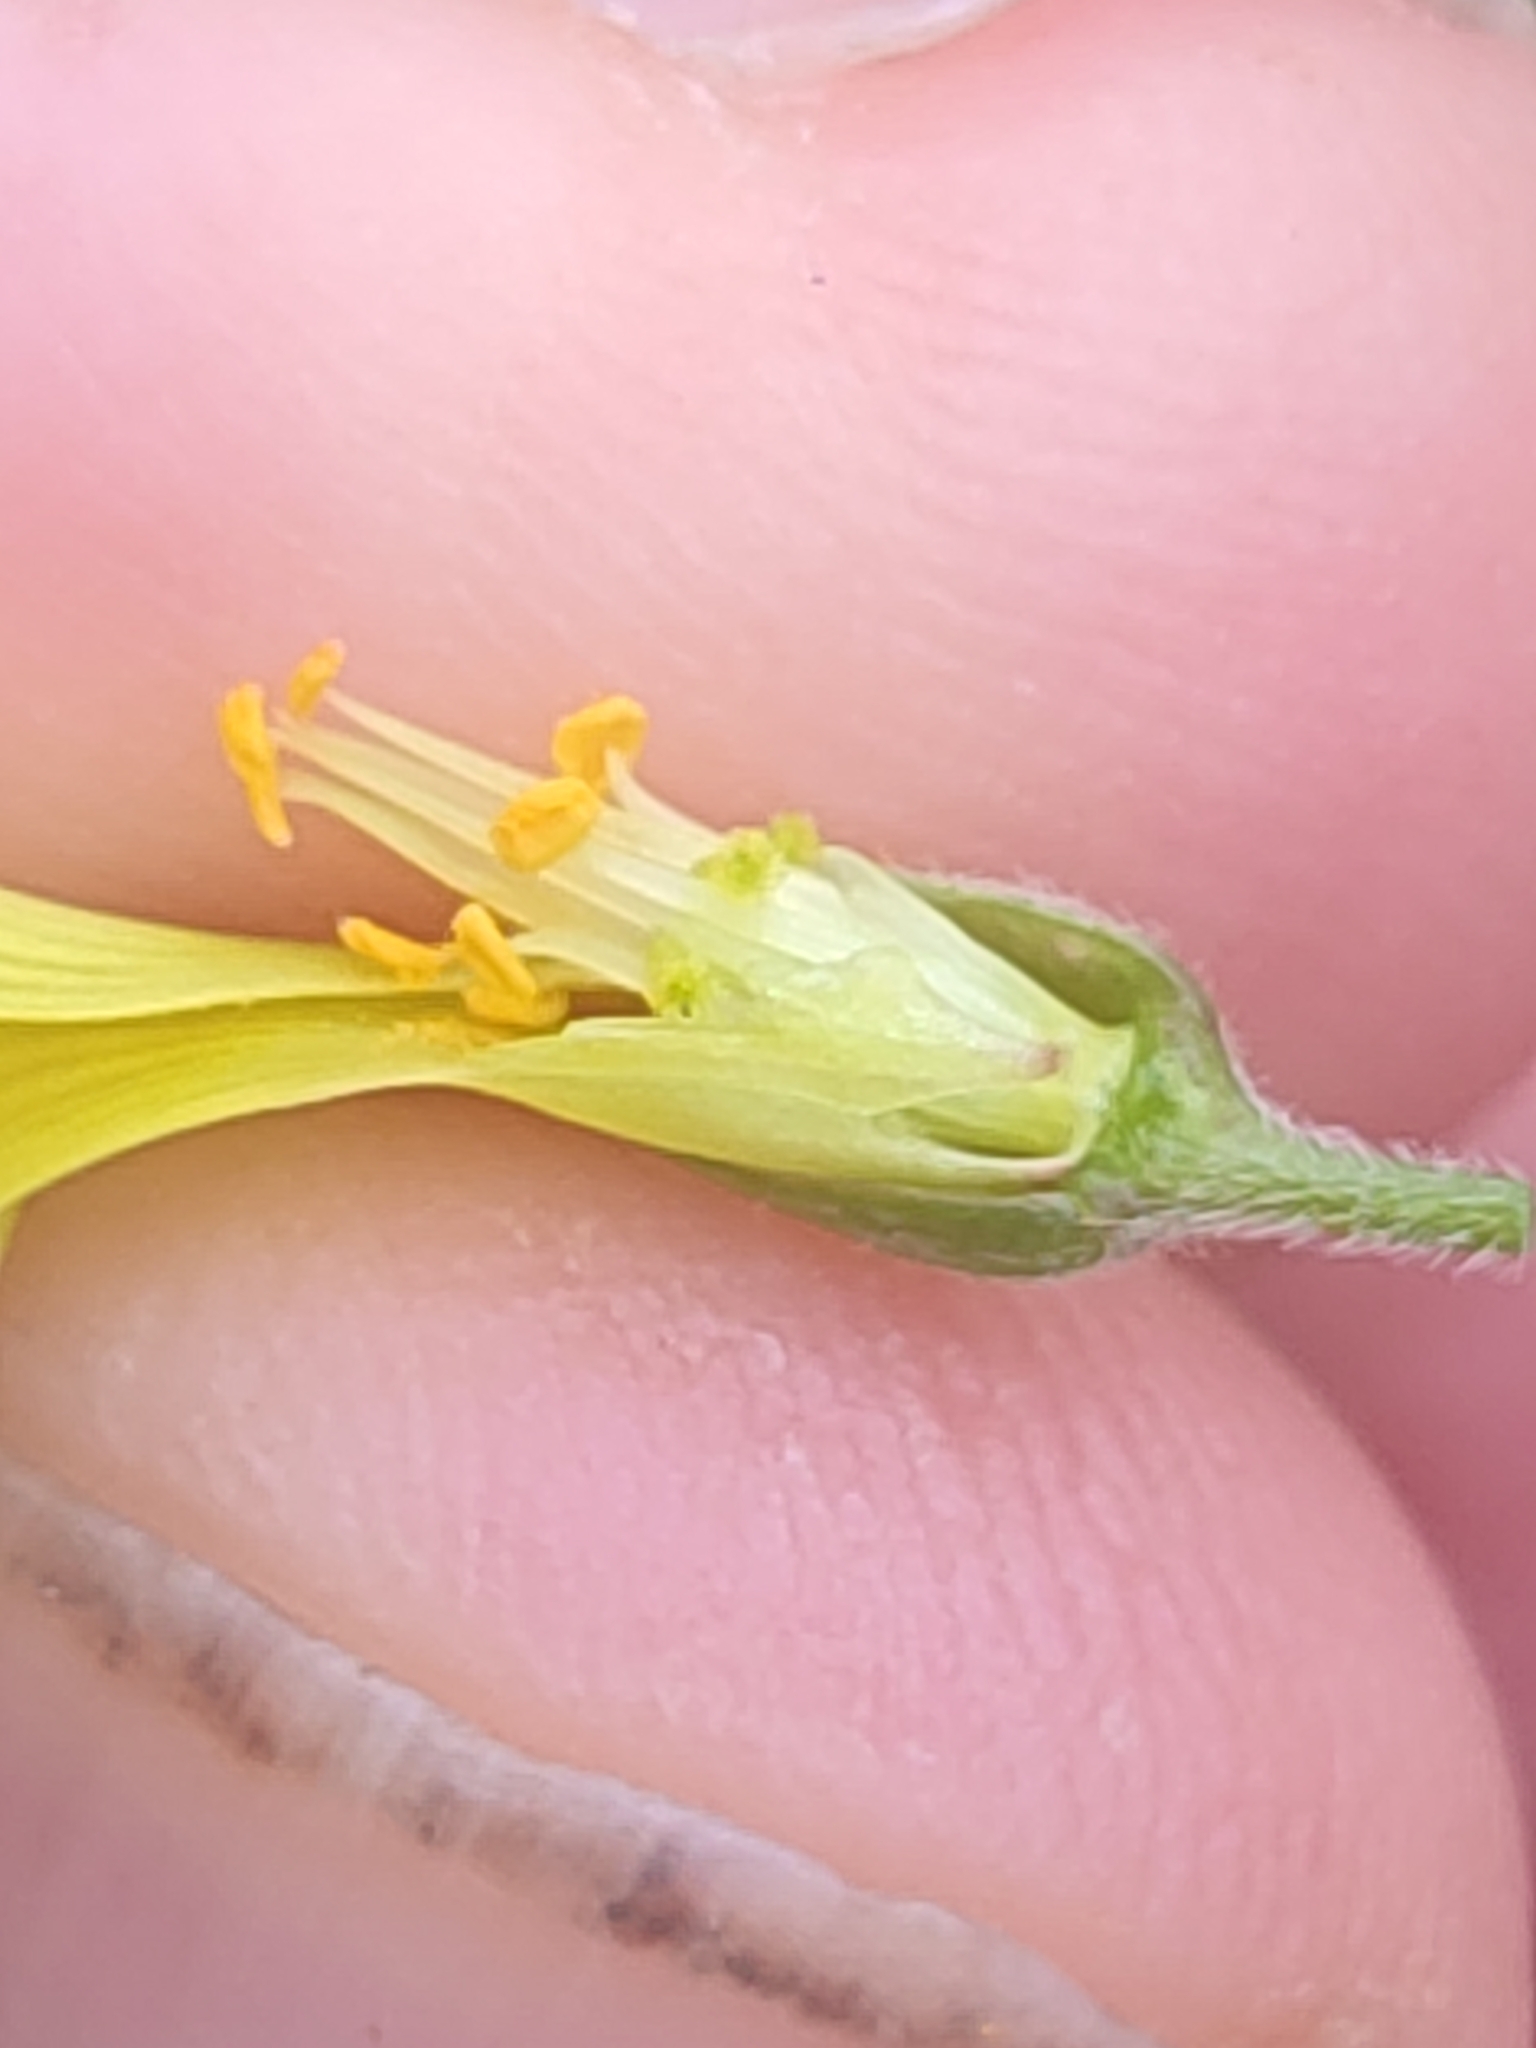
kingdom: Plantae
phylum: Tracheophyta
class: Magnoliopsida
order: Oxalidales
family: Oxalidaceae
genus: Oxalis
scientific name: Oxalis pes-caprae
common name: Bermuda-buttercup
